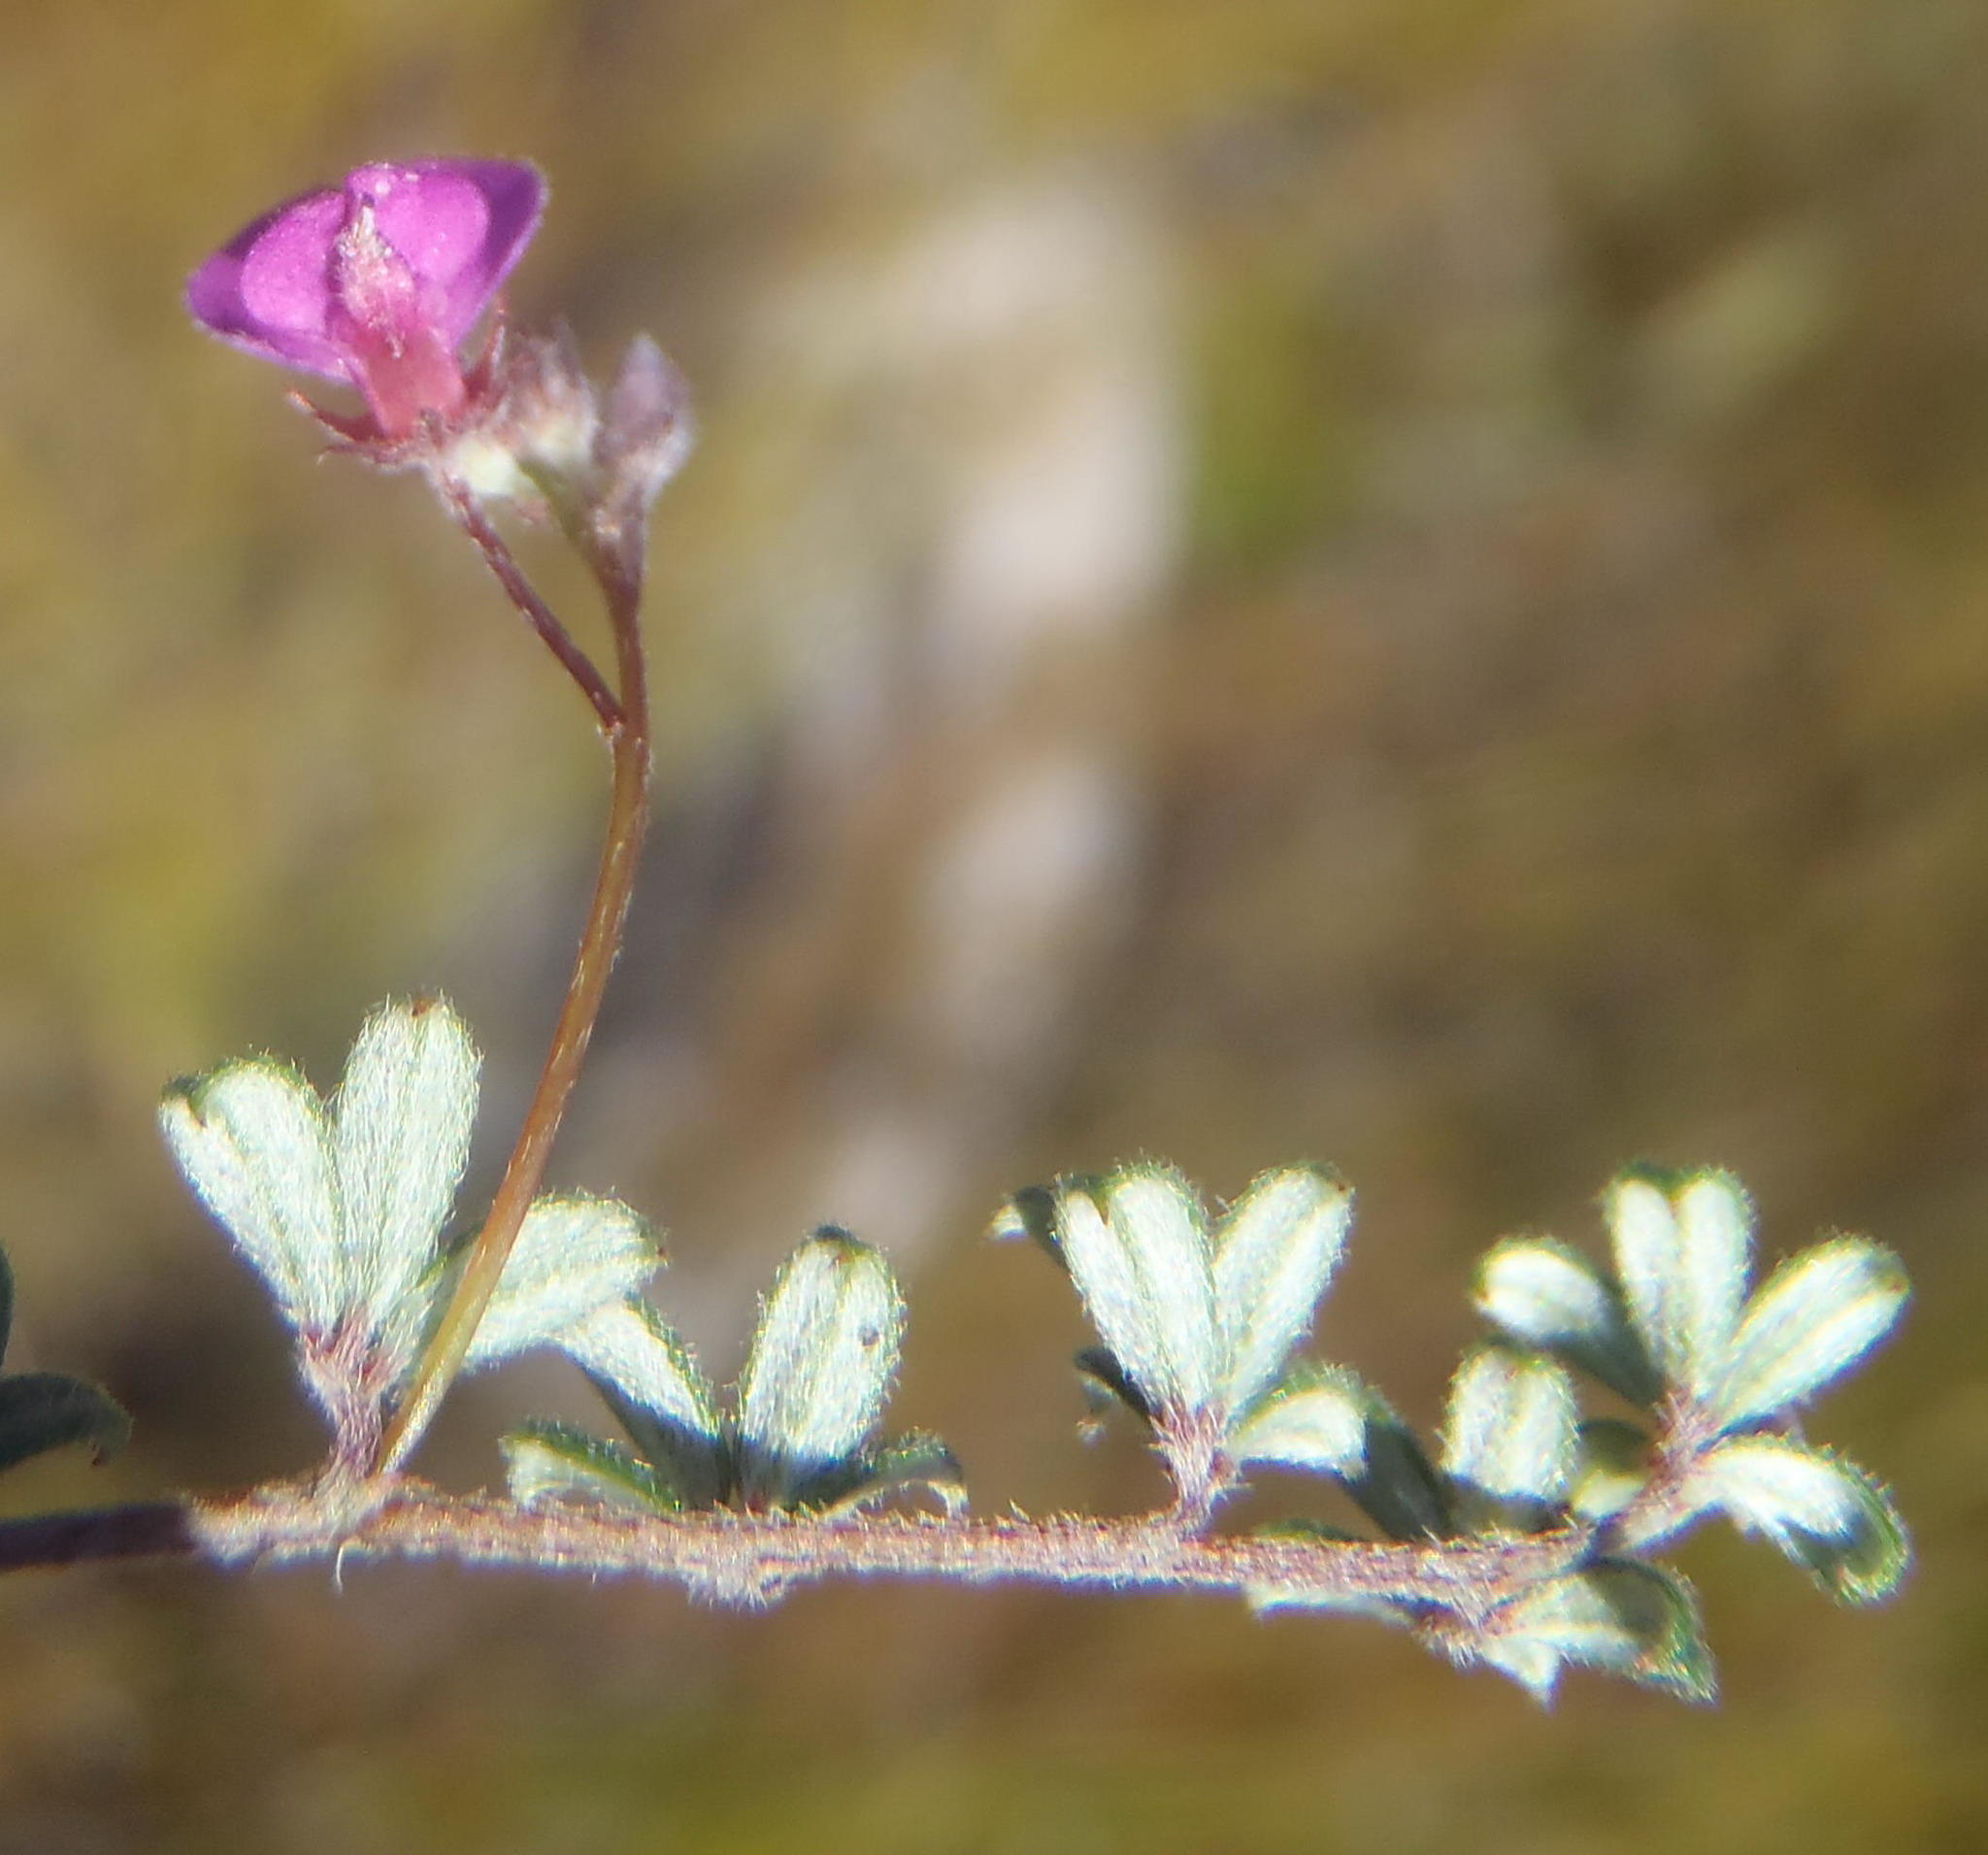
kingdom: Plantae
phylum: Tracheophyta
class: Magnoliopsida
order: Fabales
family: Fabaceae
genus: Indigofera
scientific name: Indigofera
